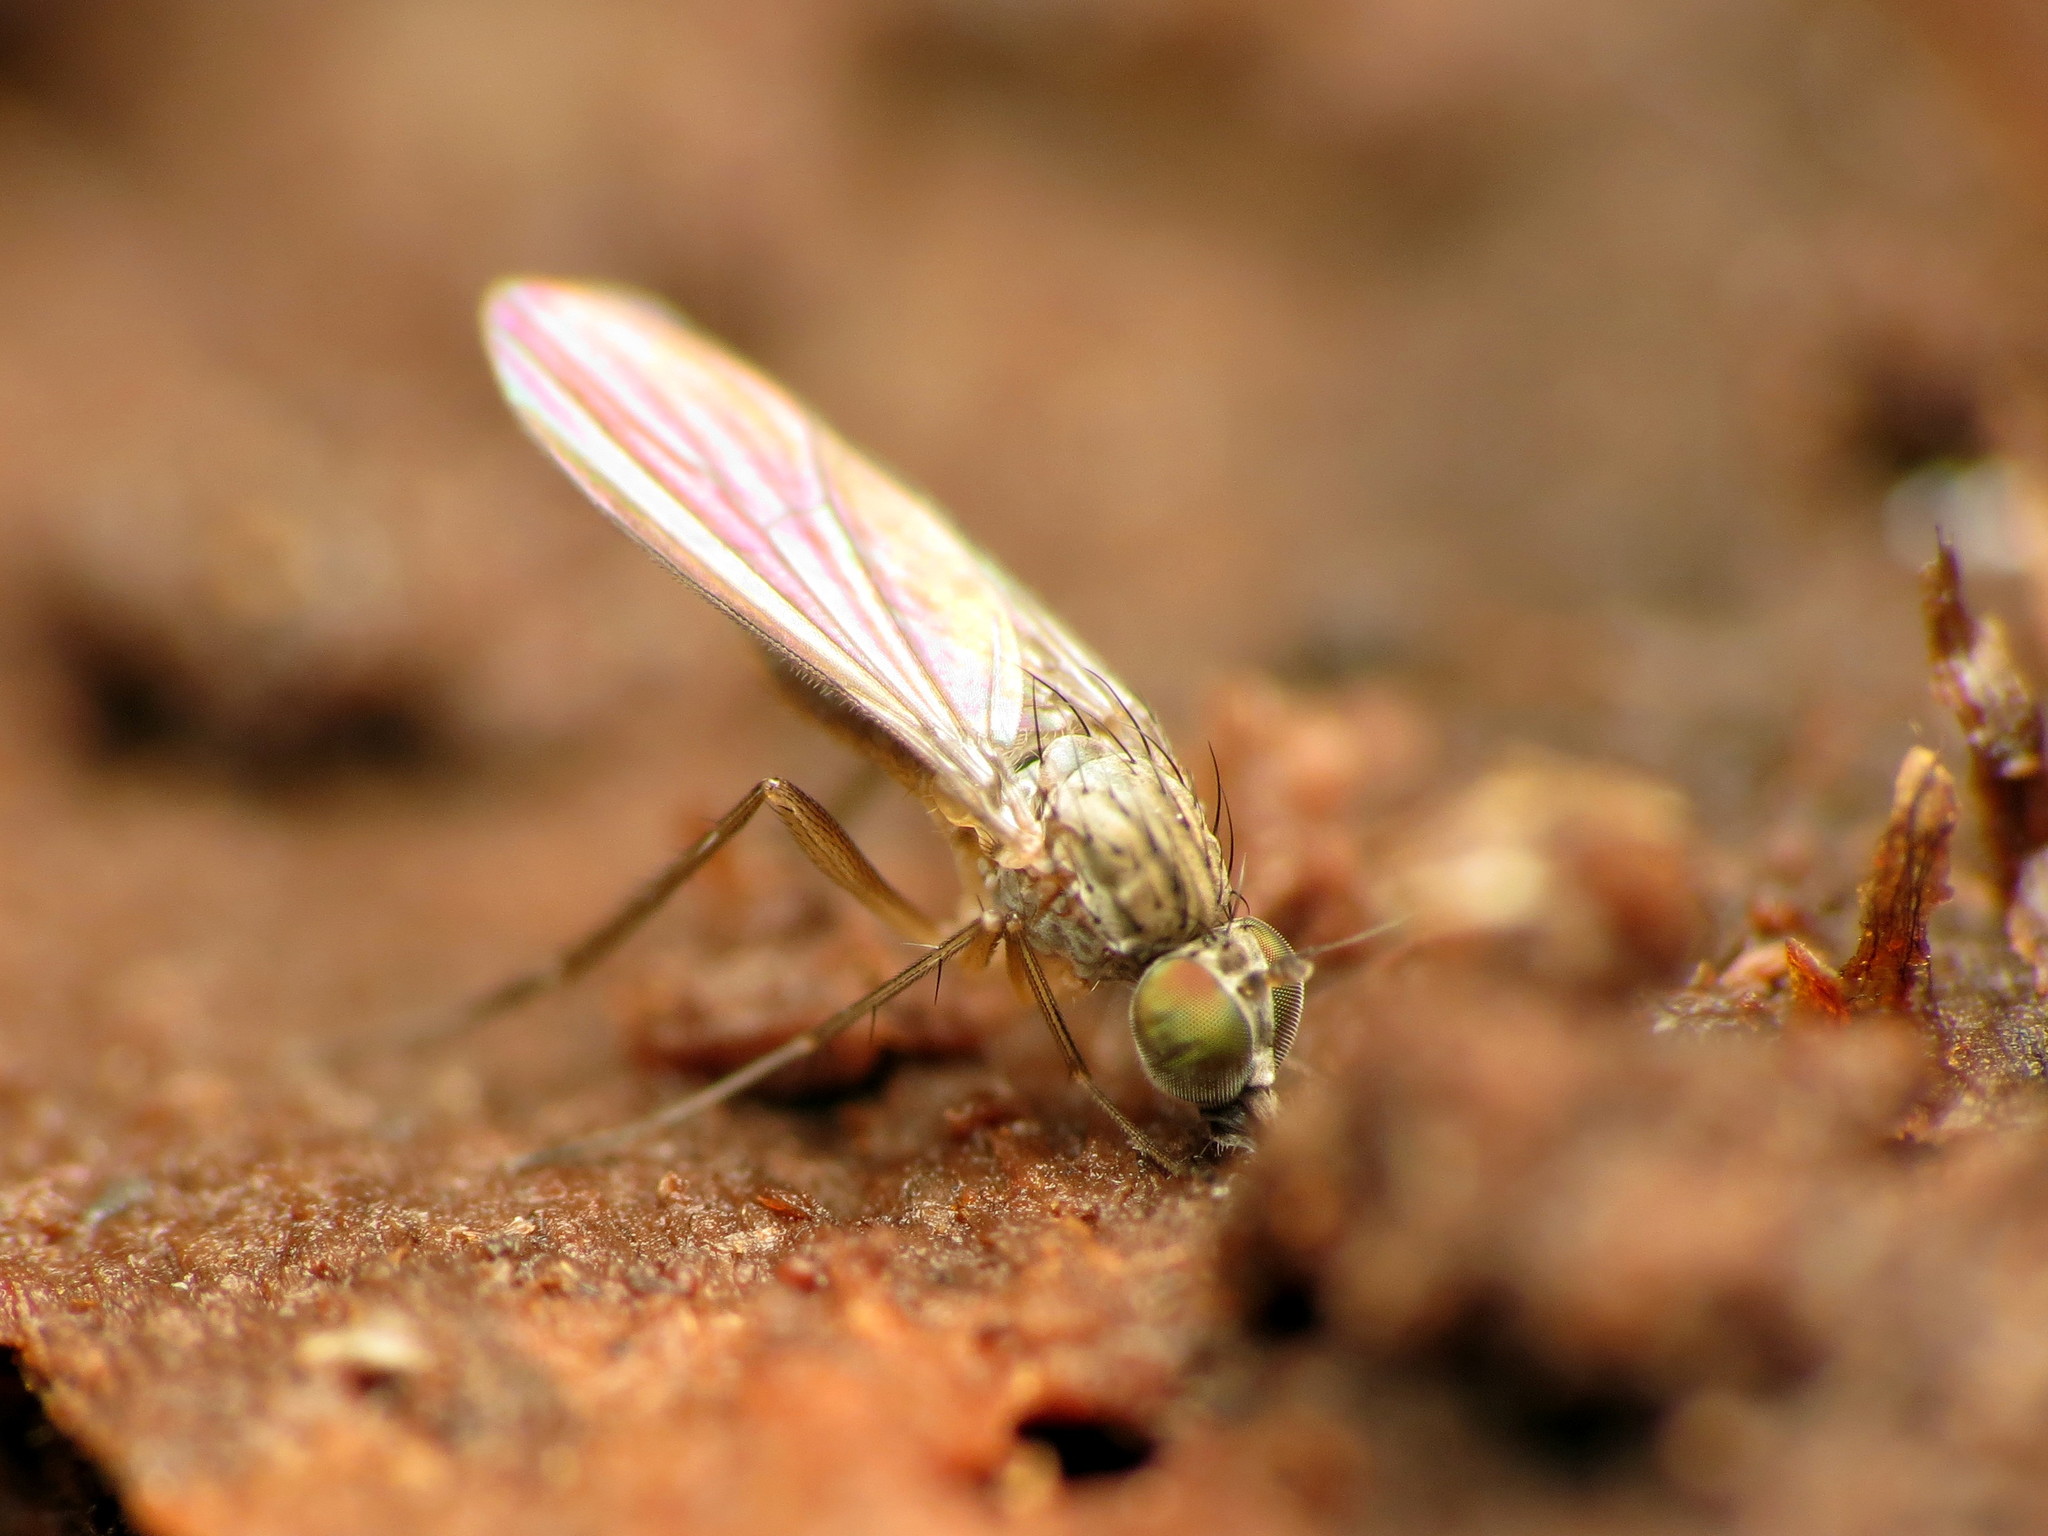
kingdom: Animalia
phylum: Arthropoda
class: Insecta
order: Diptera
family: Dolichopodidae
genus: Sympycnus
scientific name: Sympycnus lineatus
